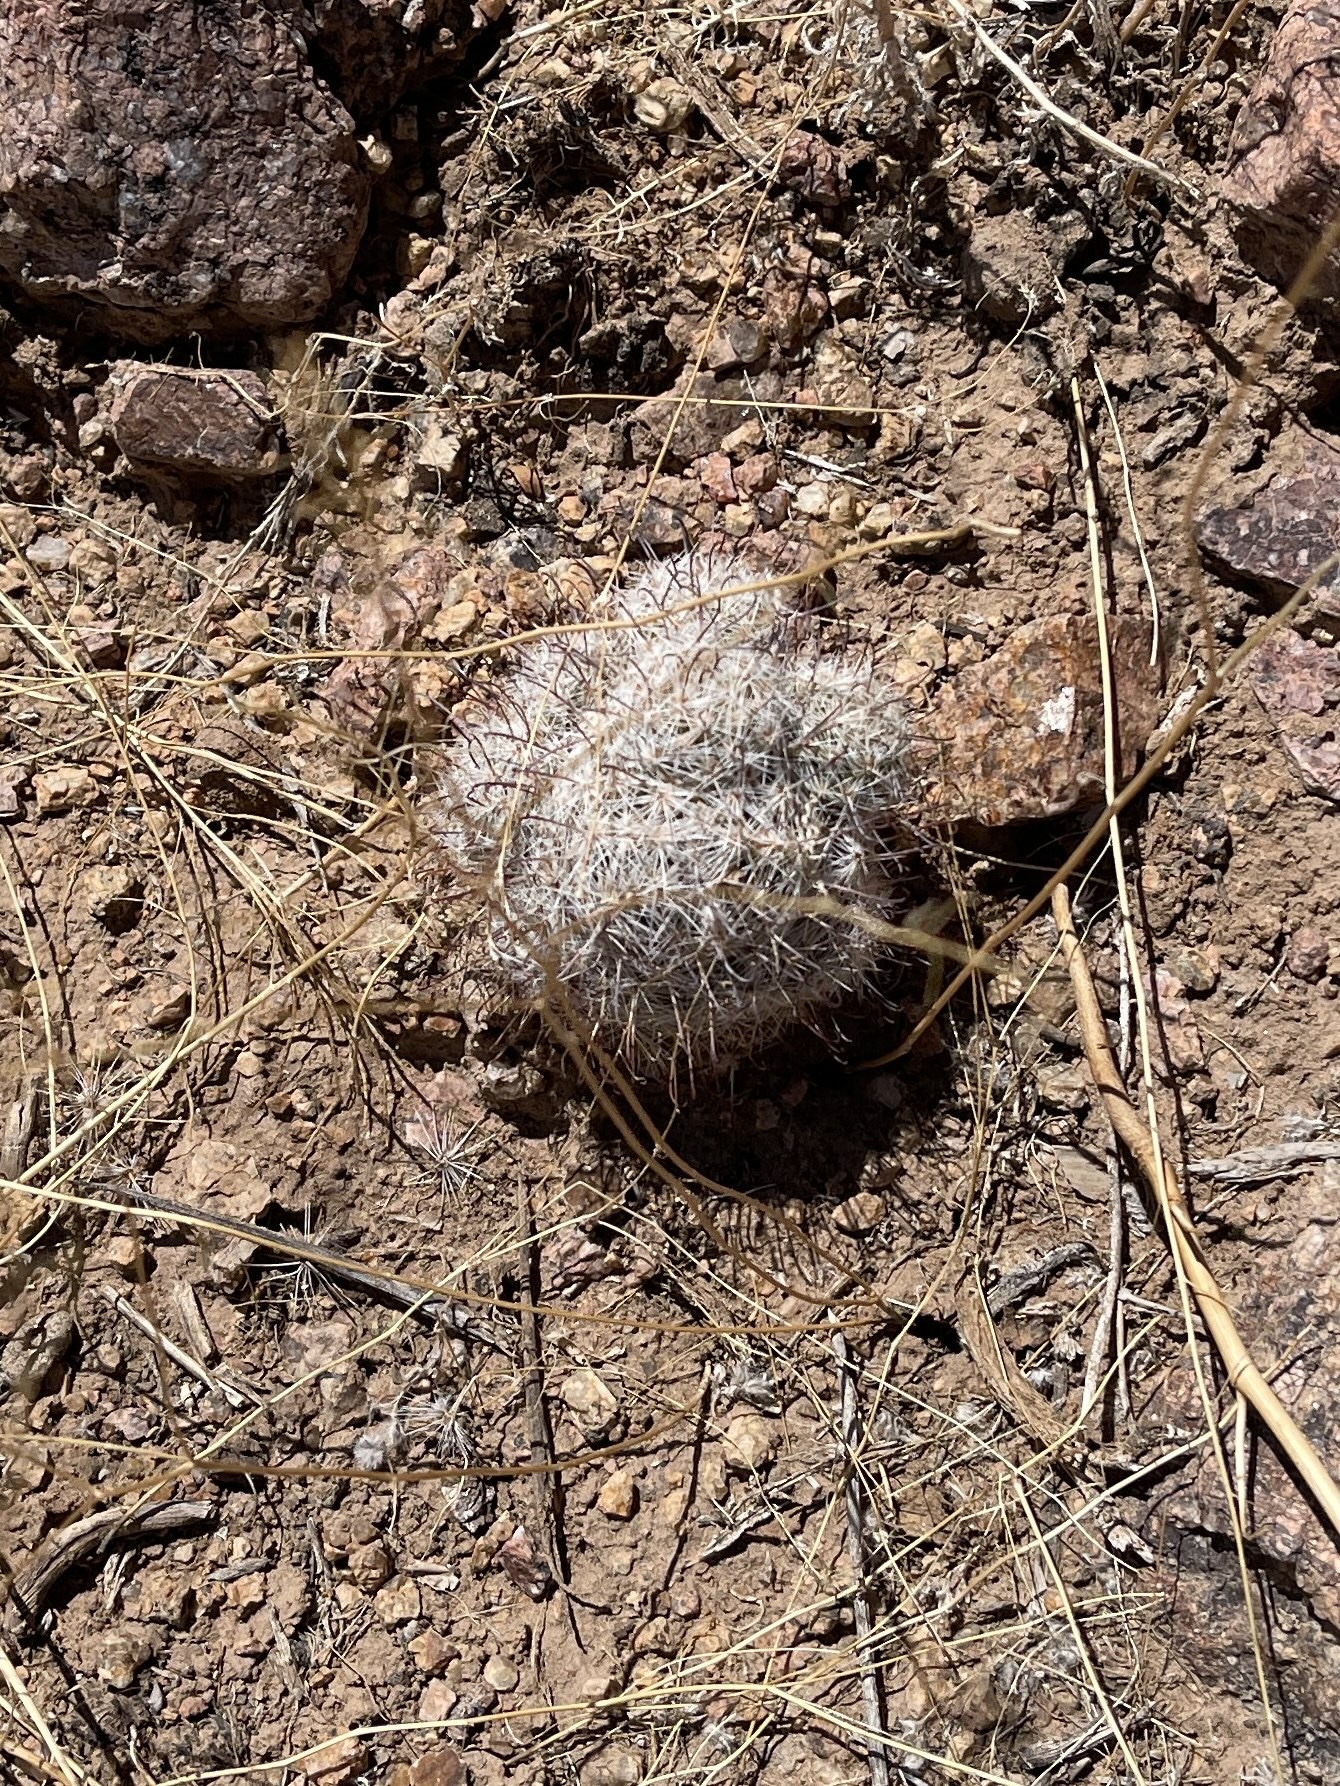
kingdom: Plantae
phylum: Tracheophyta
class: Magnoliopsida
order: Caryophyllales
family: Cactaceae
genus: Cochemiea
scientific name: Cochemiea grahamii
